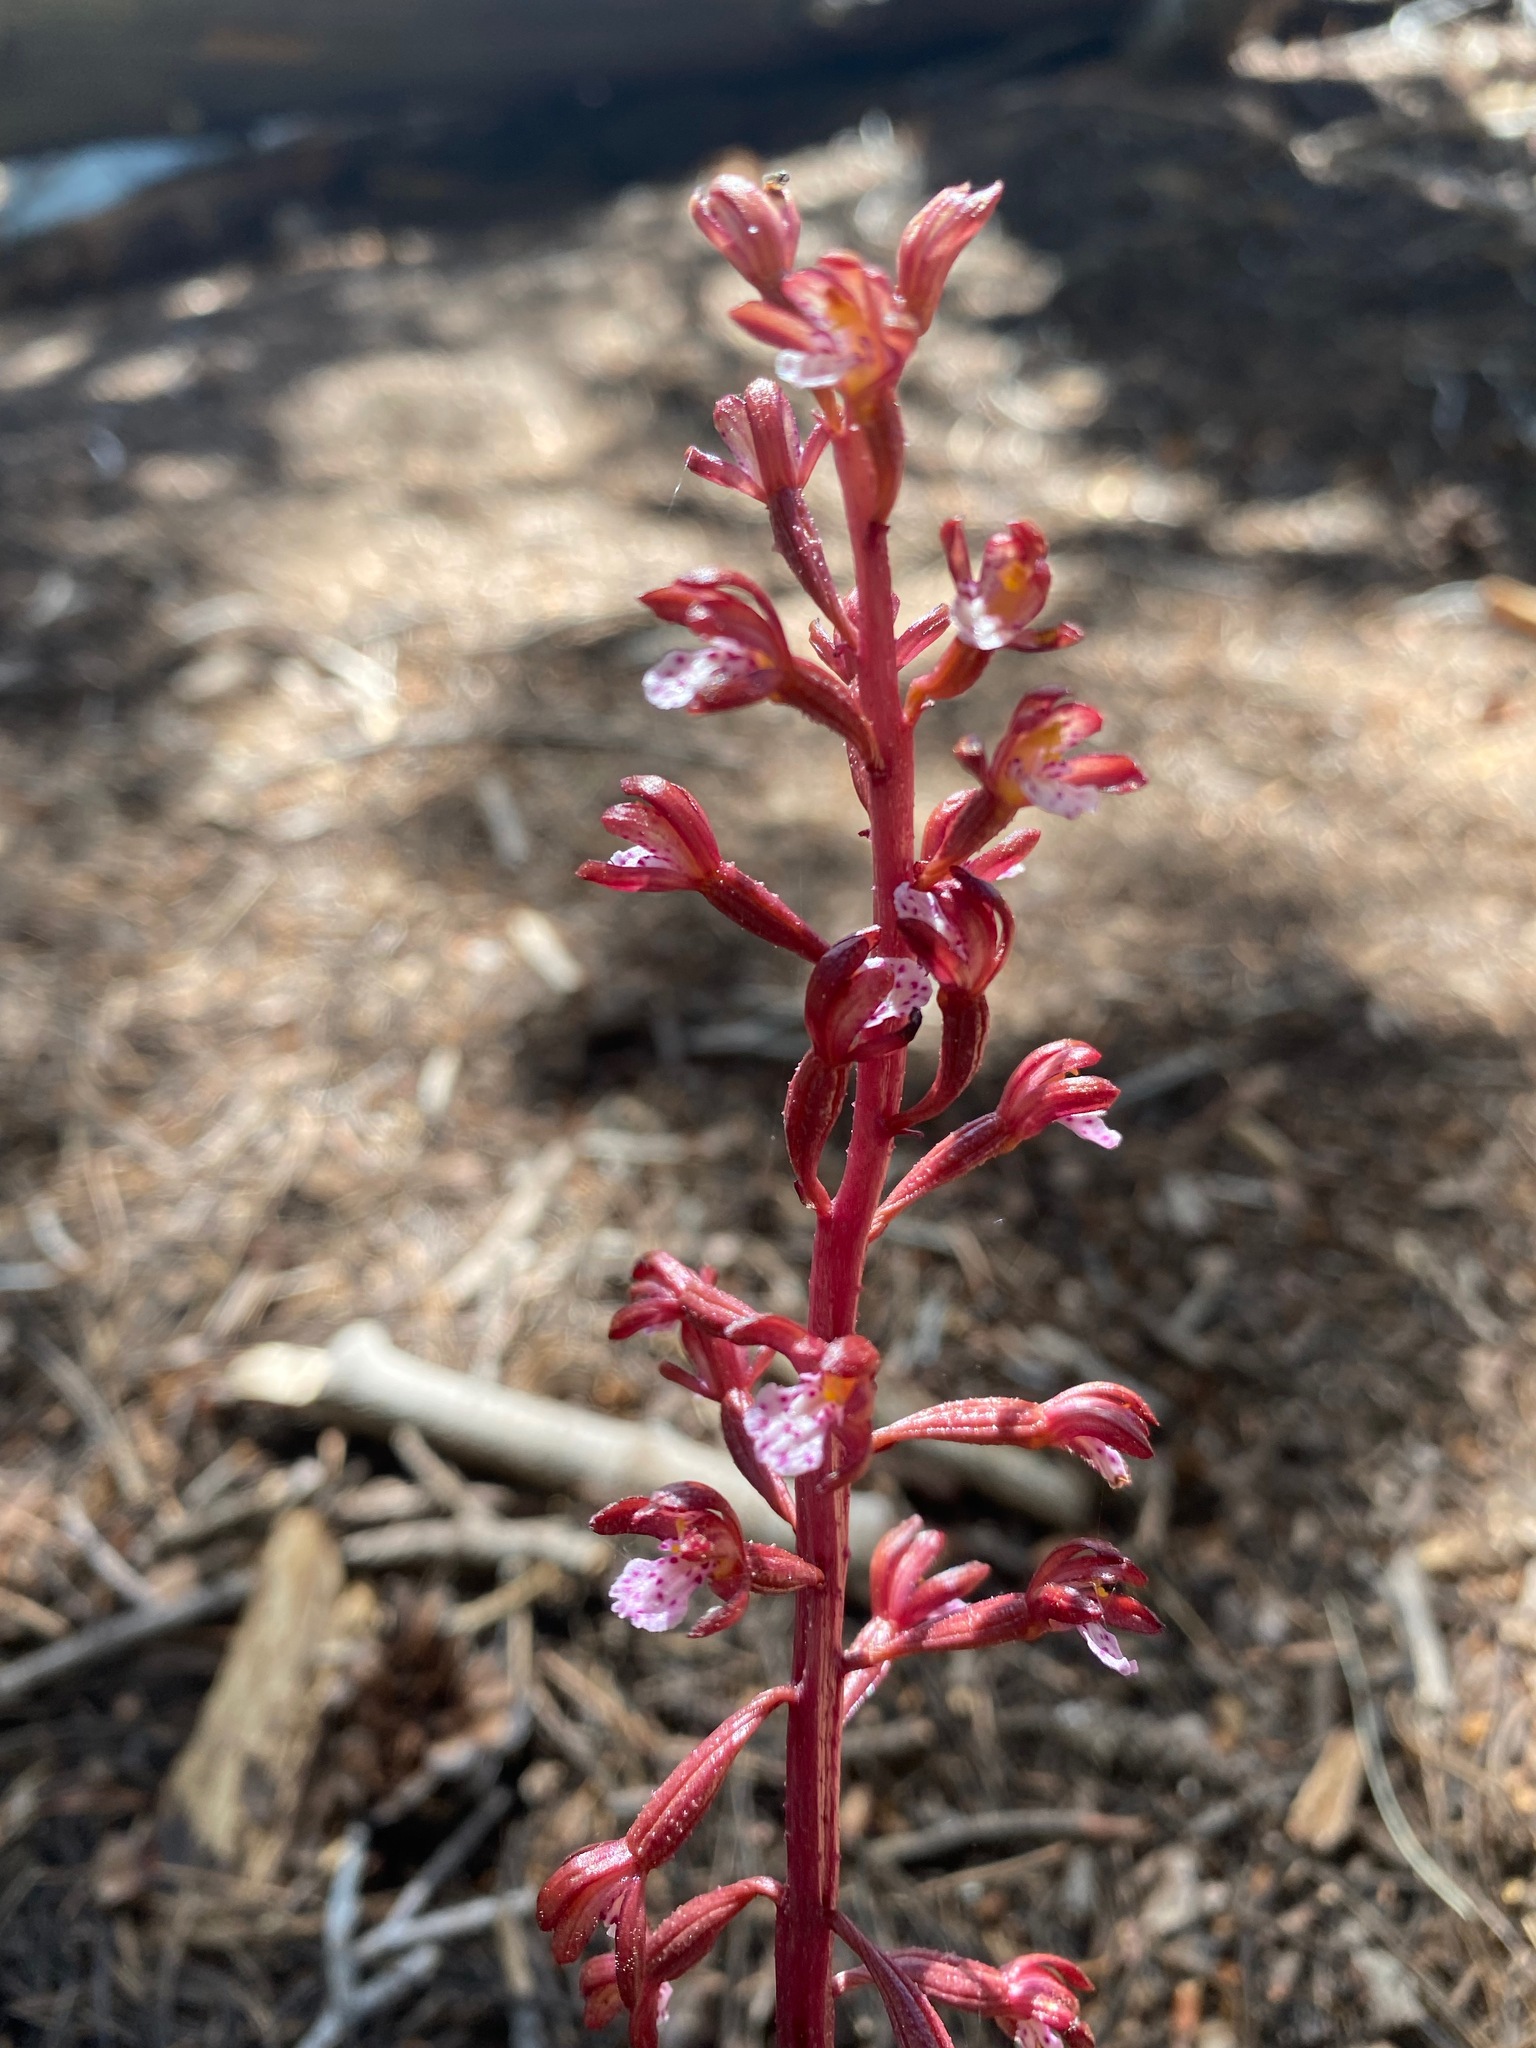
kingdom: Plantae
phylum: Tracheophyta
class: Liliopsida
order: Asparagales
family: Orchidaceae
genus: Corallorhiza
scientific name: Corallorhiza maculata
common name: Spotted coralroot
